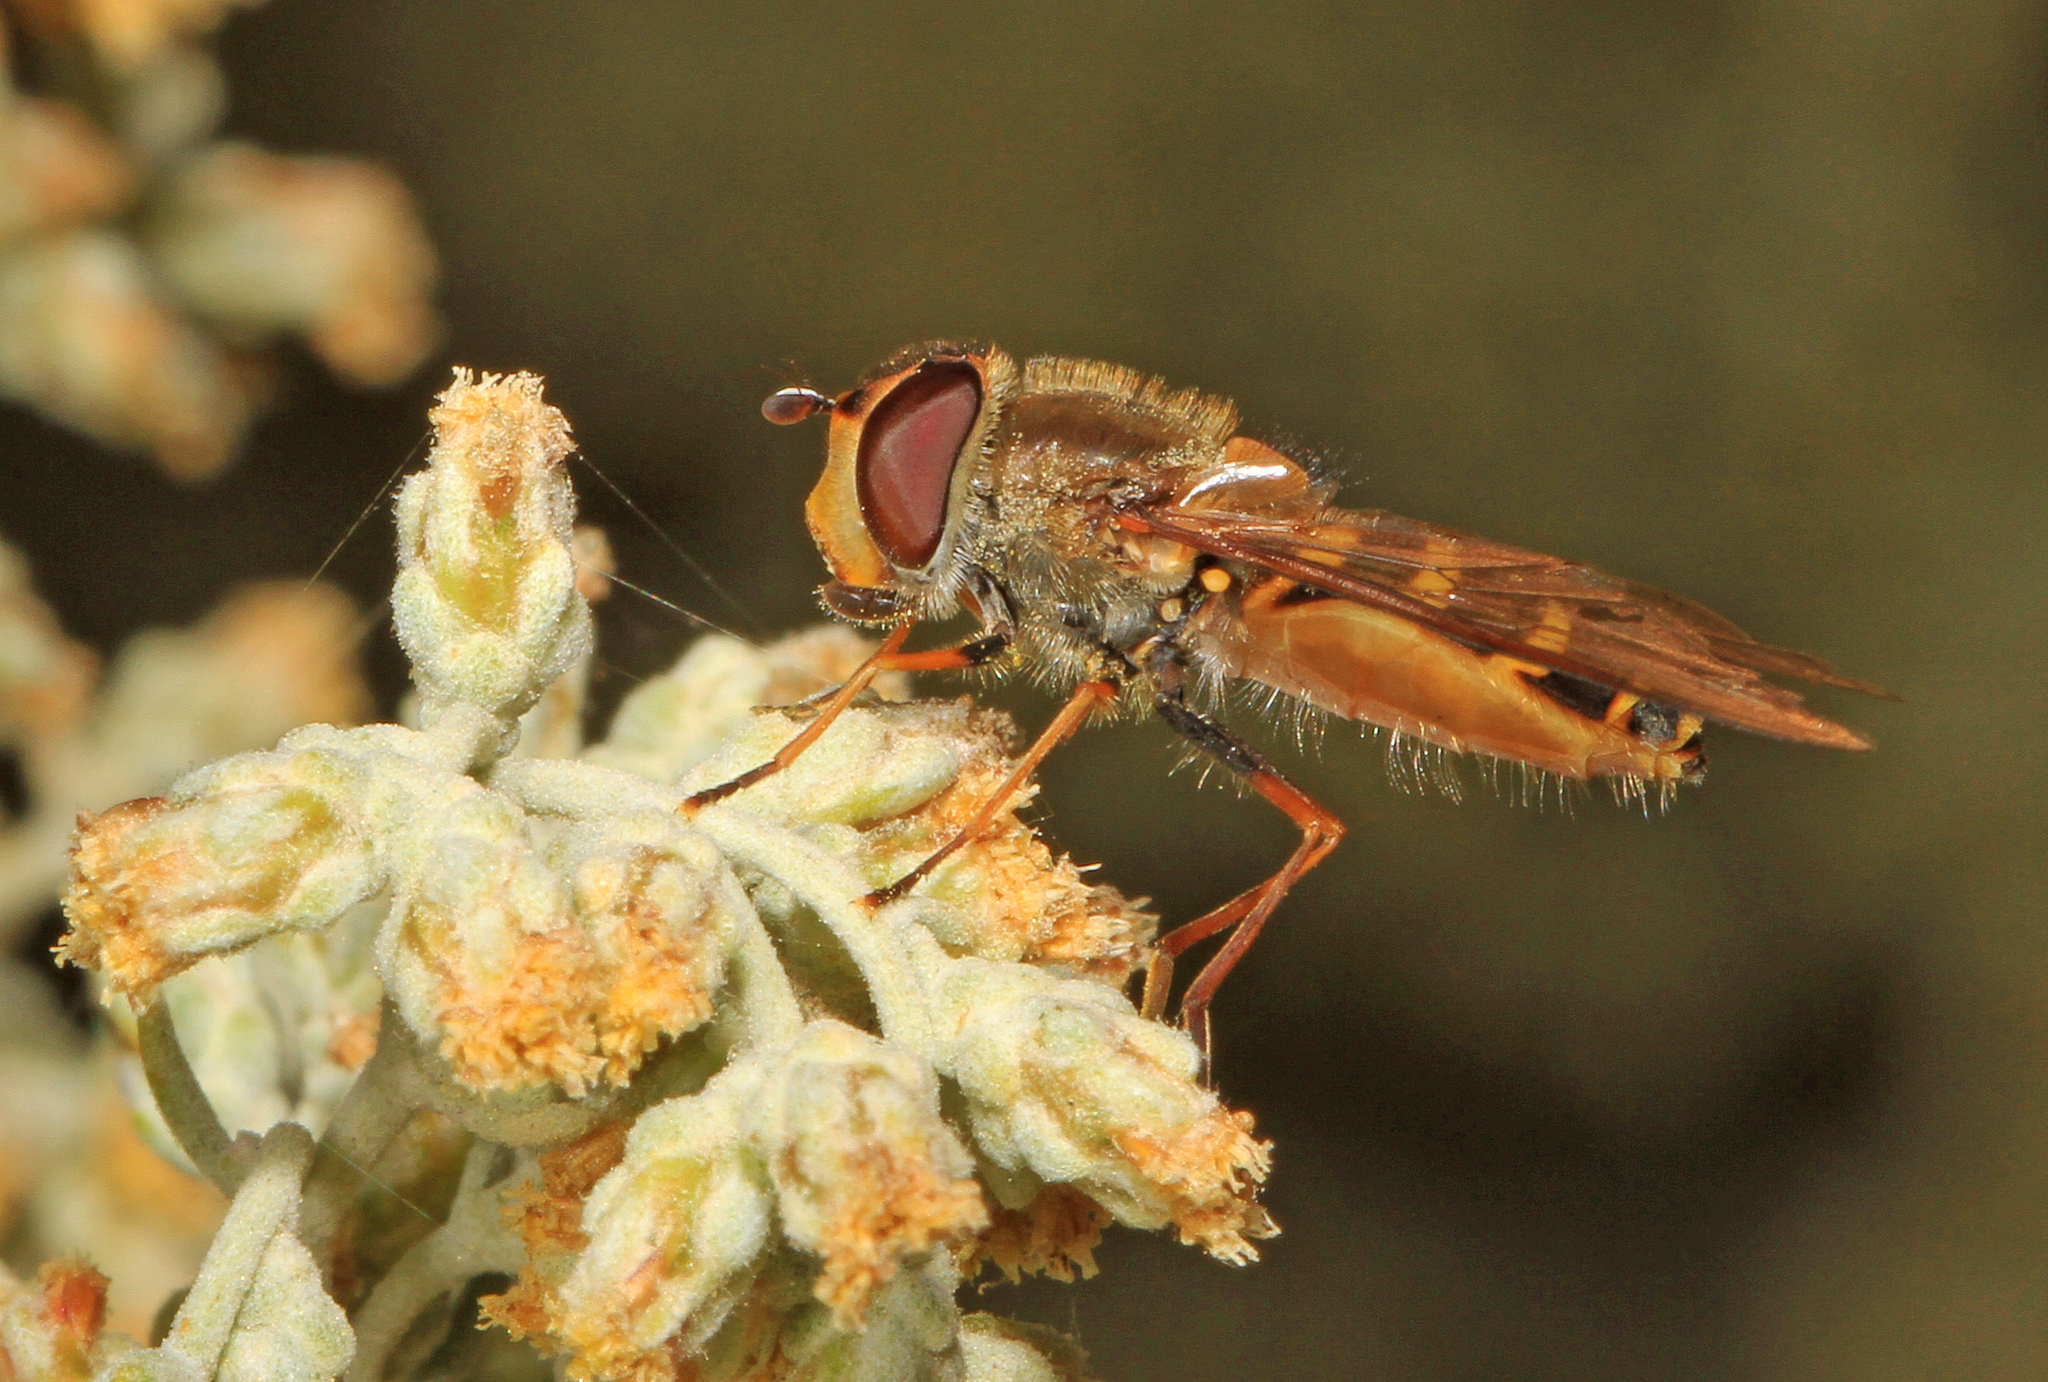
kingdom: Animalia
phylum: Arthropoda
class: Insecta
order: Diptera
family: Syrphidae
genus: Syrphus
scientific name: Syrphus
